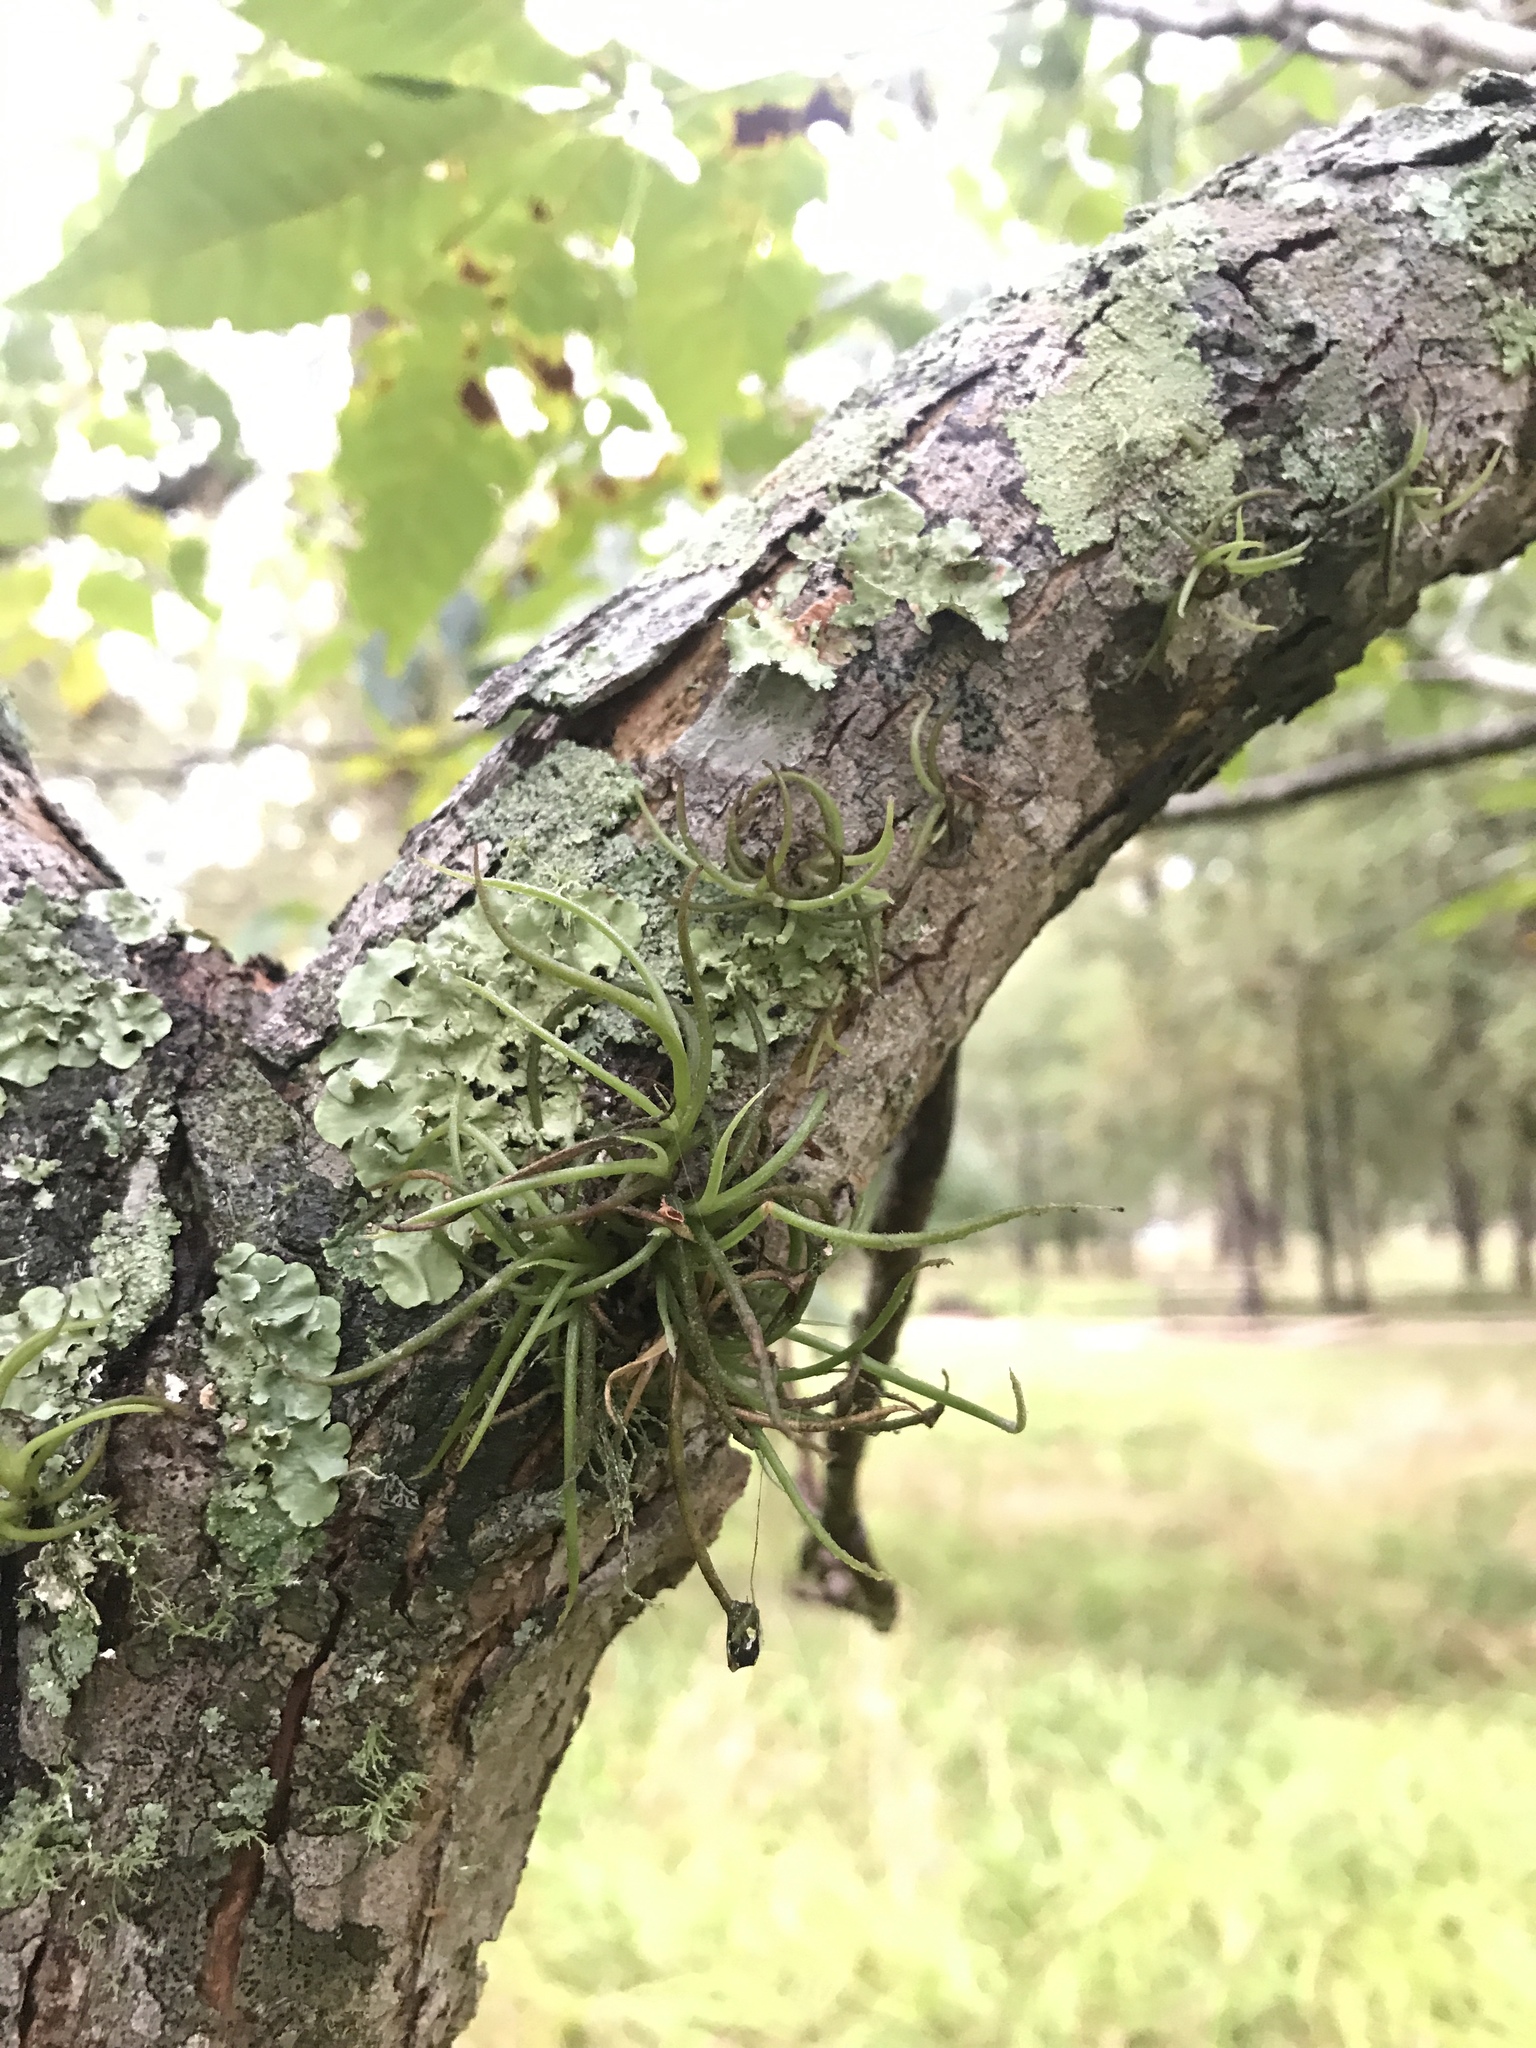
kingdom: Plantae
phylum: Tracheophyta
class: Liliopsida
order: Poales
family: Bromeliaceae
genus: Tillandsia
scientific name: Tillandsia recurvata
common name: Small ballmoss
